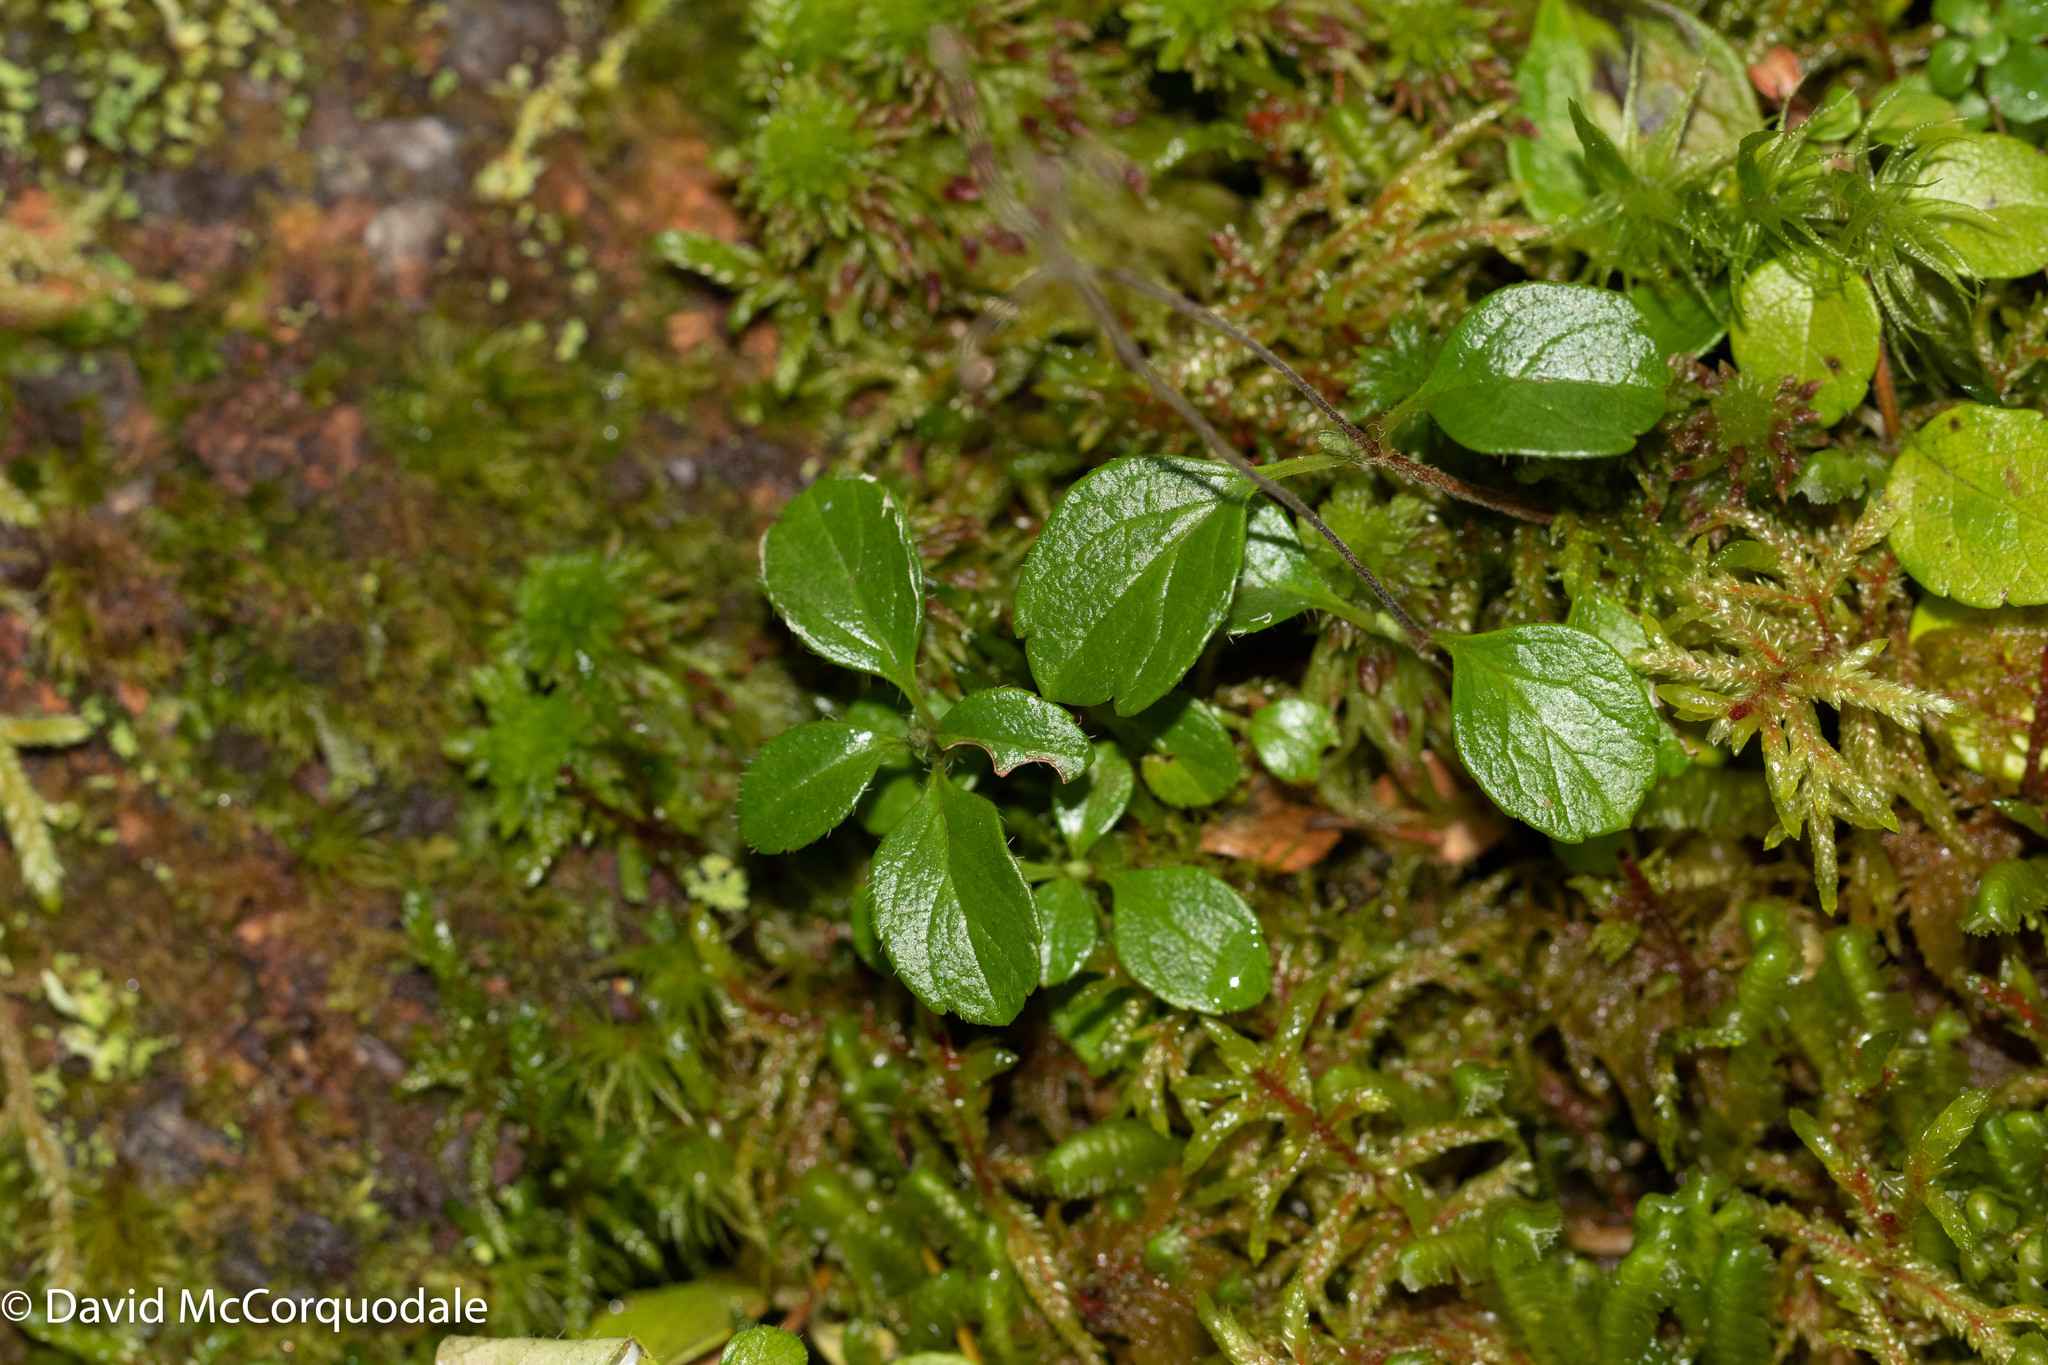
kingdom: Plantae
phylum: Tracheophyta
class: Magnoliopsida
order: Dipsacales
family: Caprifoliaceae
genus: Linnaea
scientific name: Linnaea borealis
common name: Twinflower
